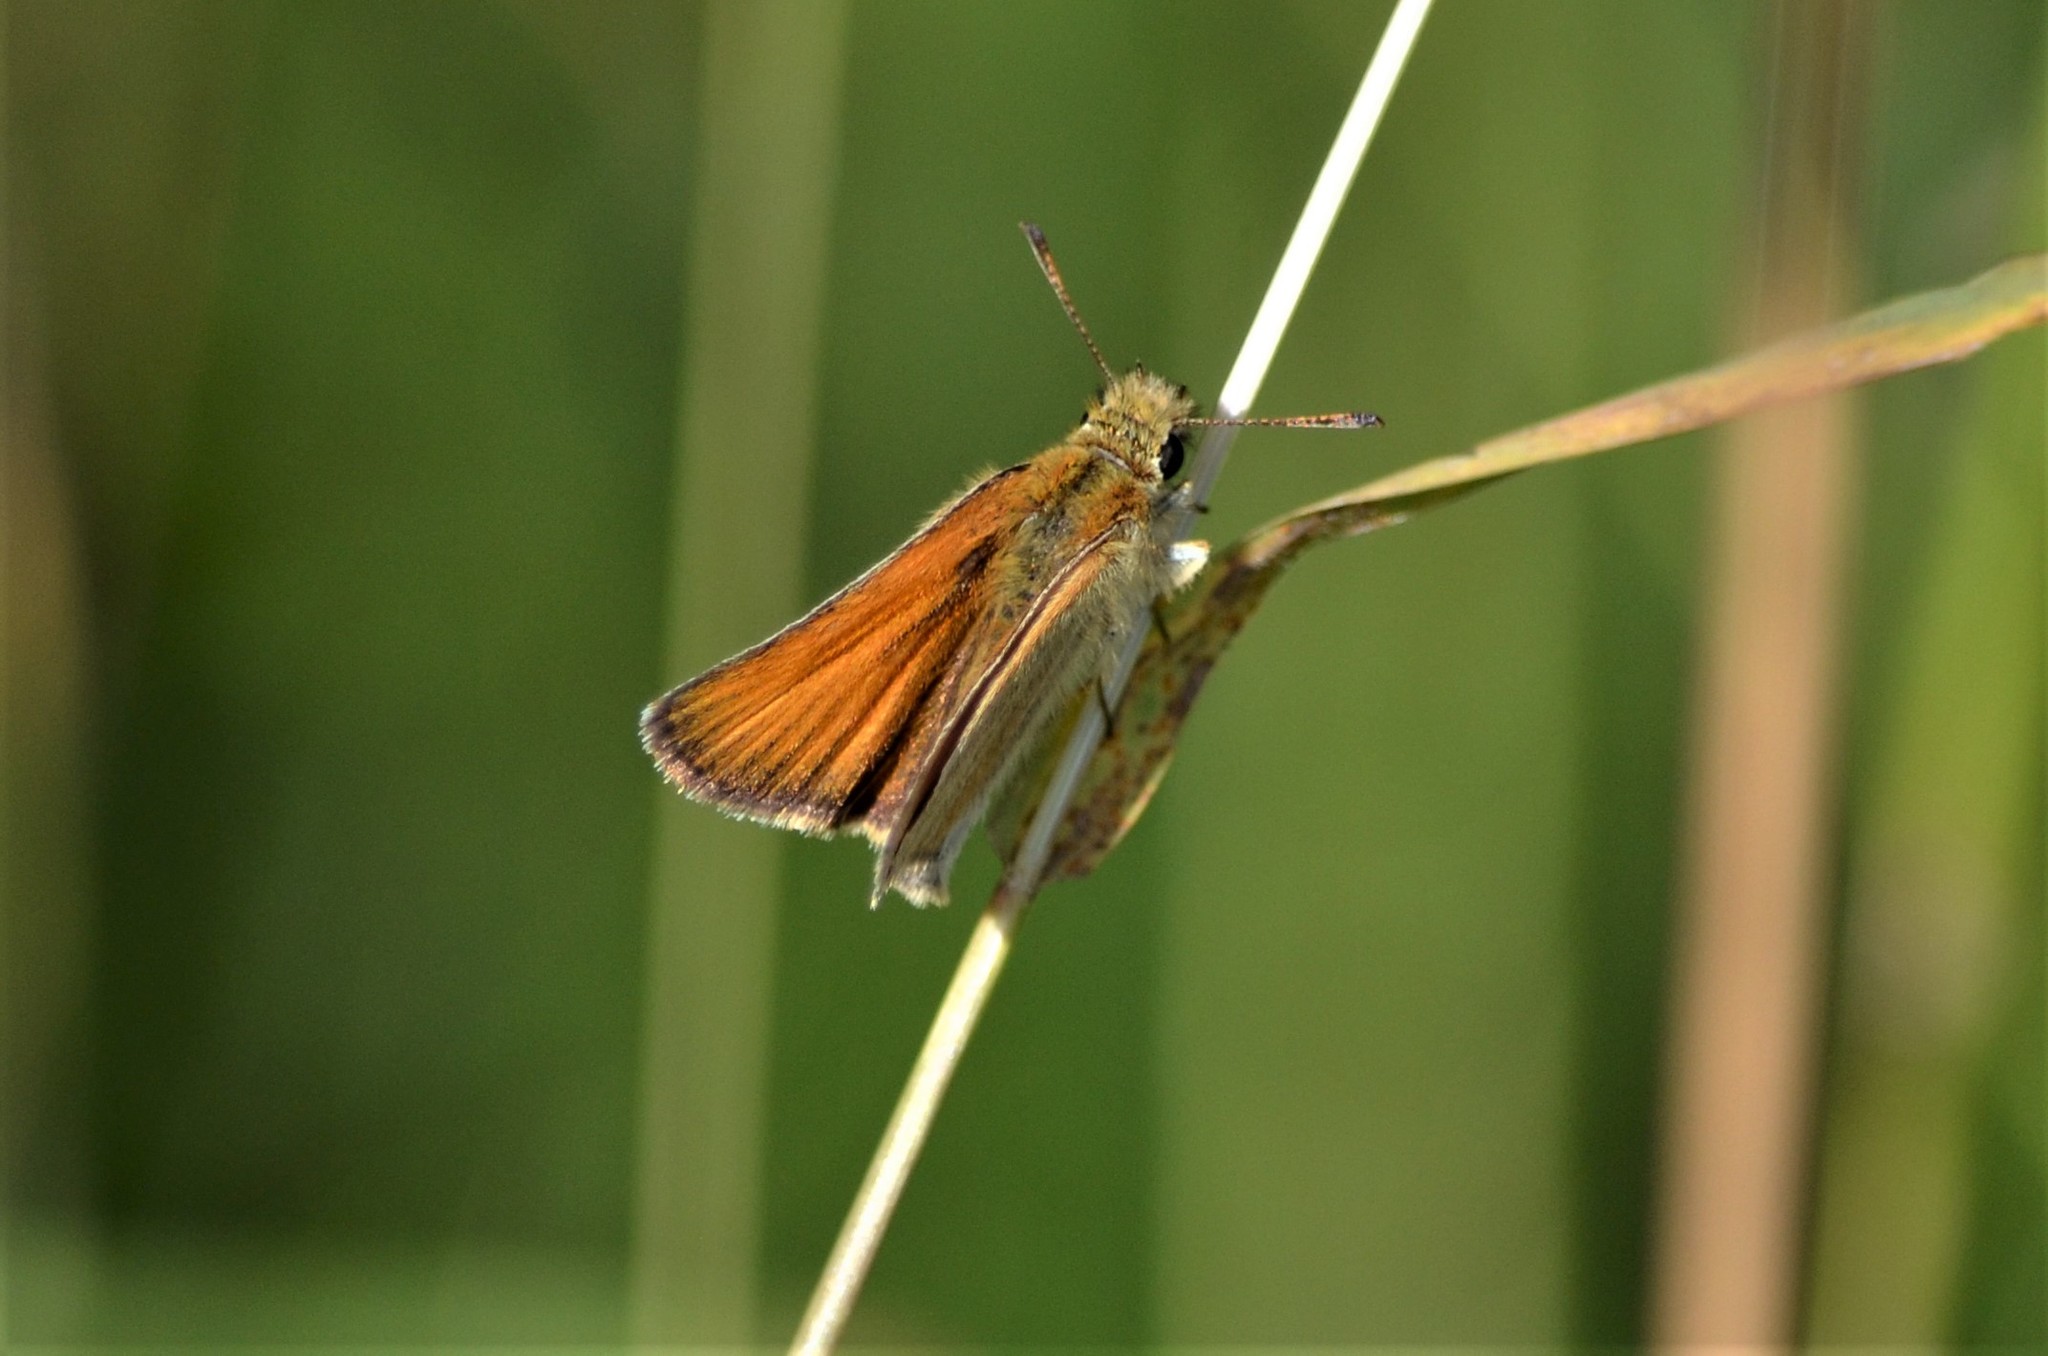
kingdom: Animalia
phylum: Arthropoda
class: Insecta
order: Lepidoptera
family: Hesperiidae
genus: Thymelicus
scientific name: Thymelicus lineola
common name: Essex skipper
